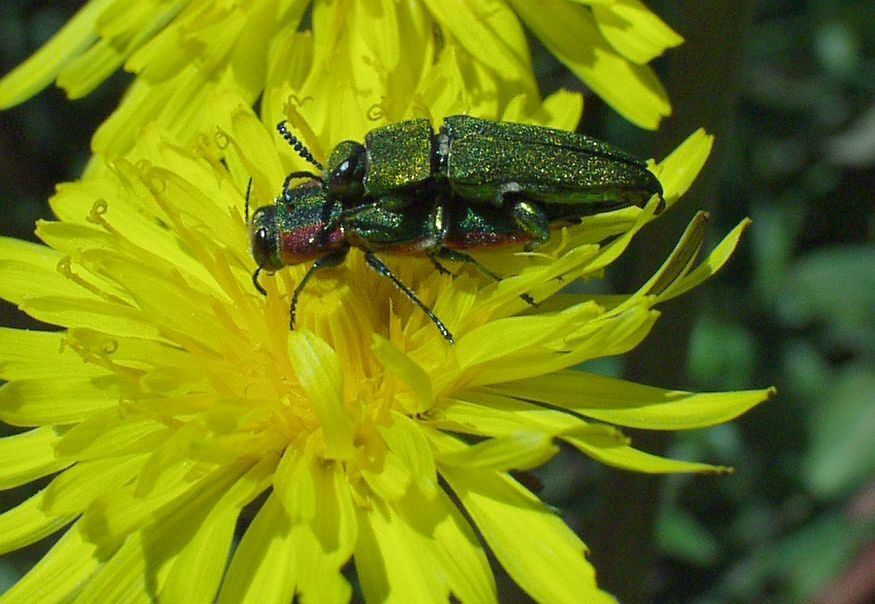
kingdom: Animalia
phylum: Arthropoda
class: Insecta
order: Coleoptera
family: Buprestidae
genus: Anthaxia
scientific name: Anthaxia hungarica
